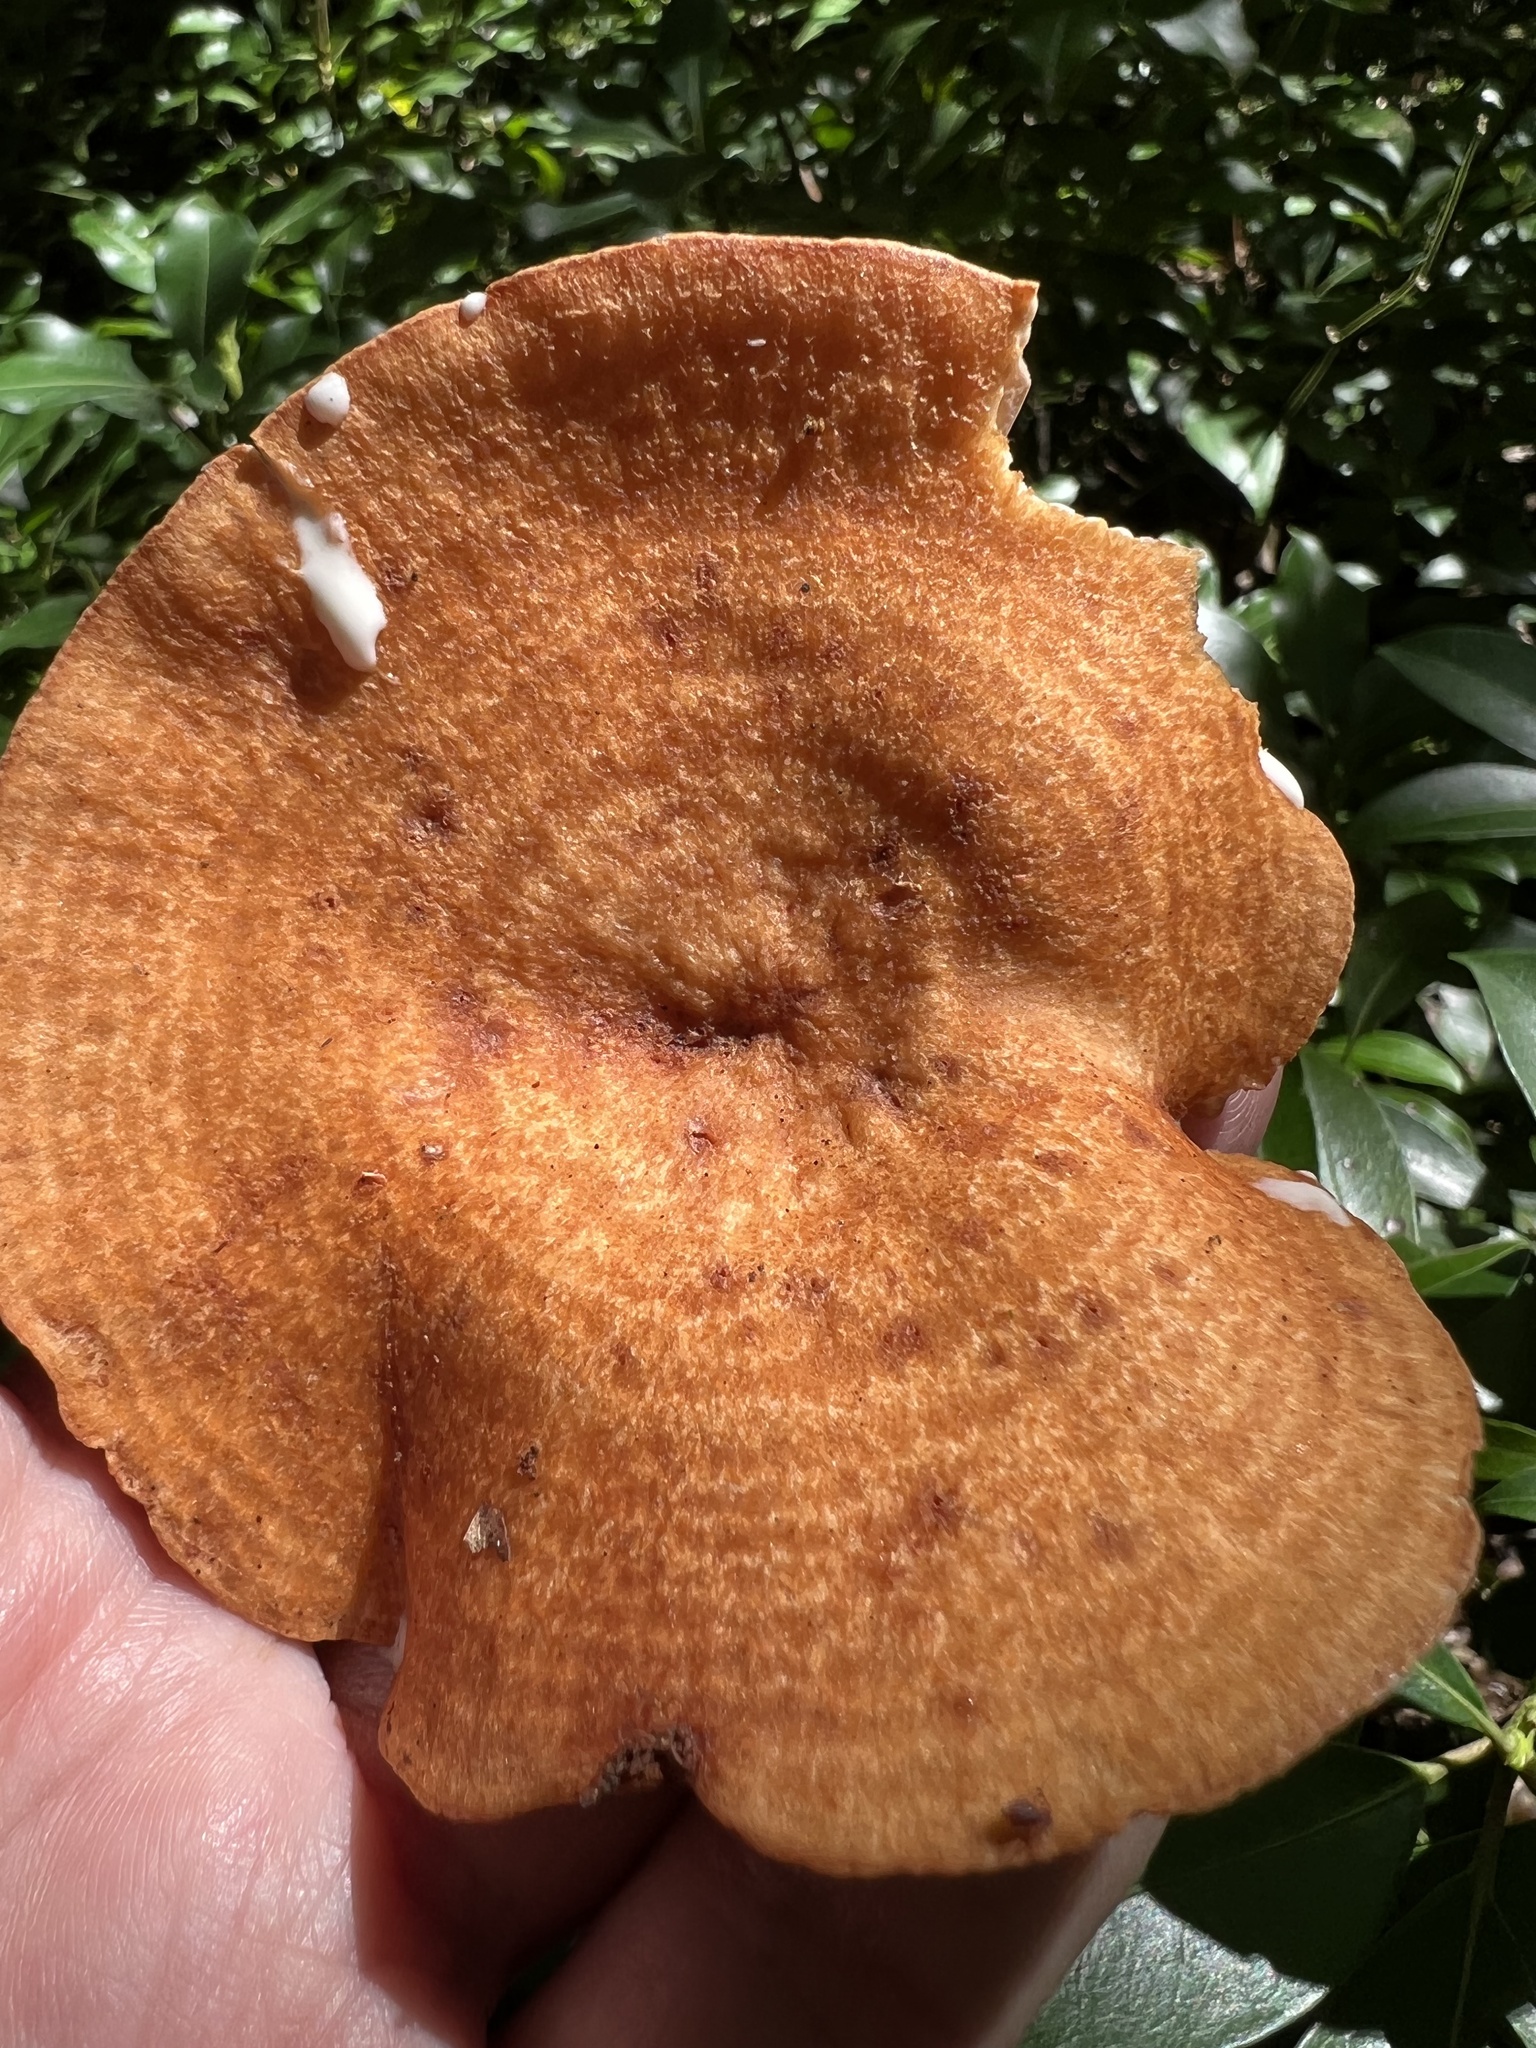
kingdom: Fungi
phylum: Basidiomycota
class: Agaricomycetes
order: Russulales
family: Russulaceae
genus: Lactarius
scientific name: Lactarius peckii
